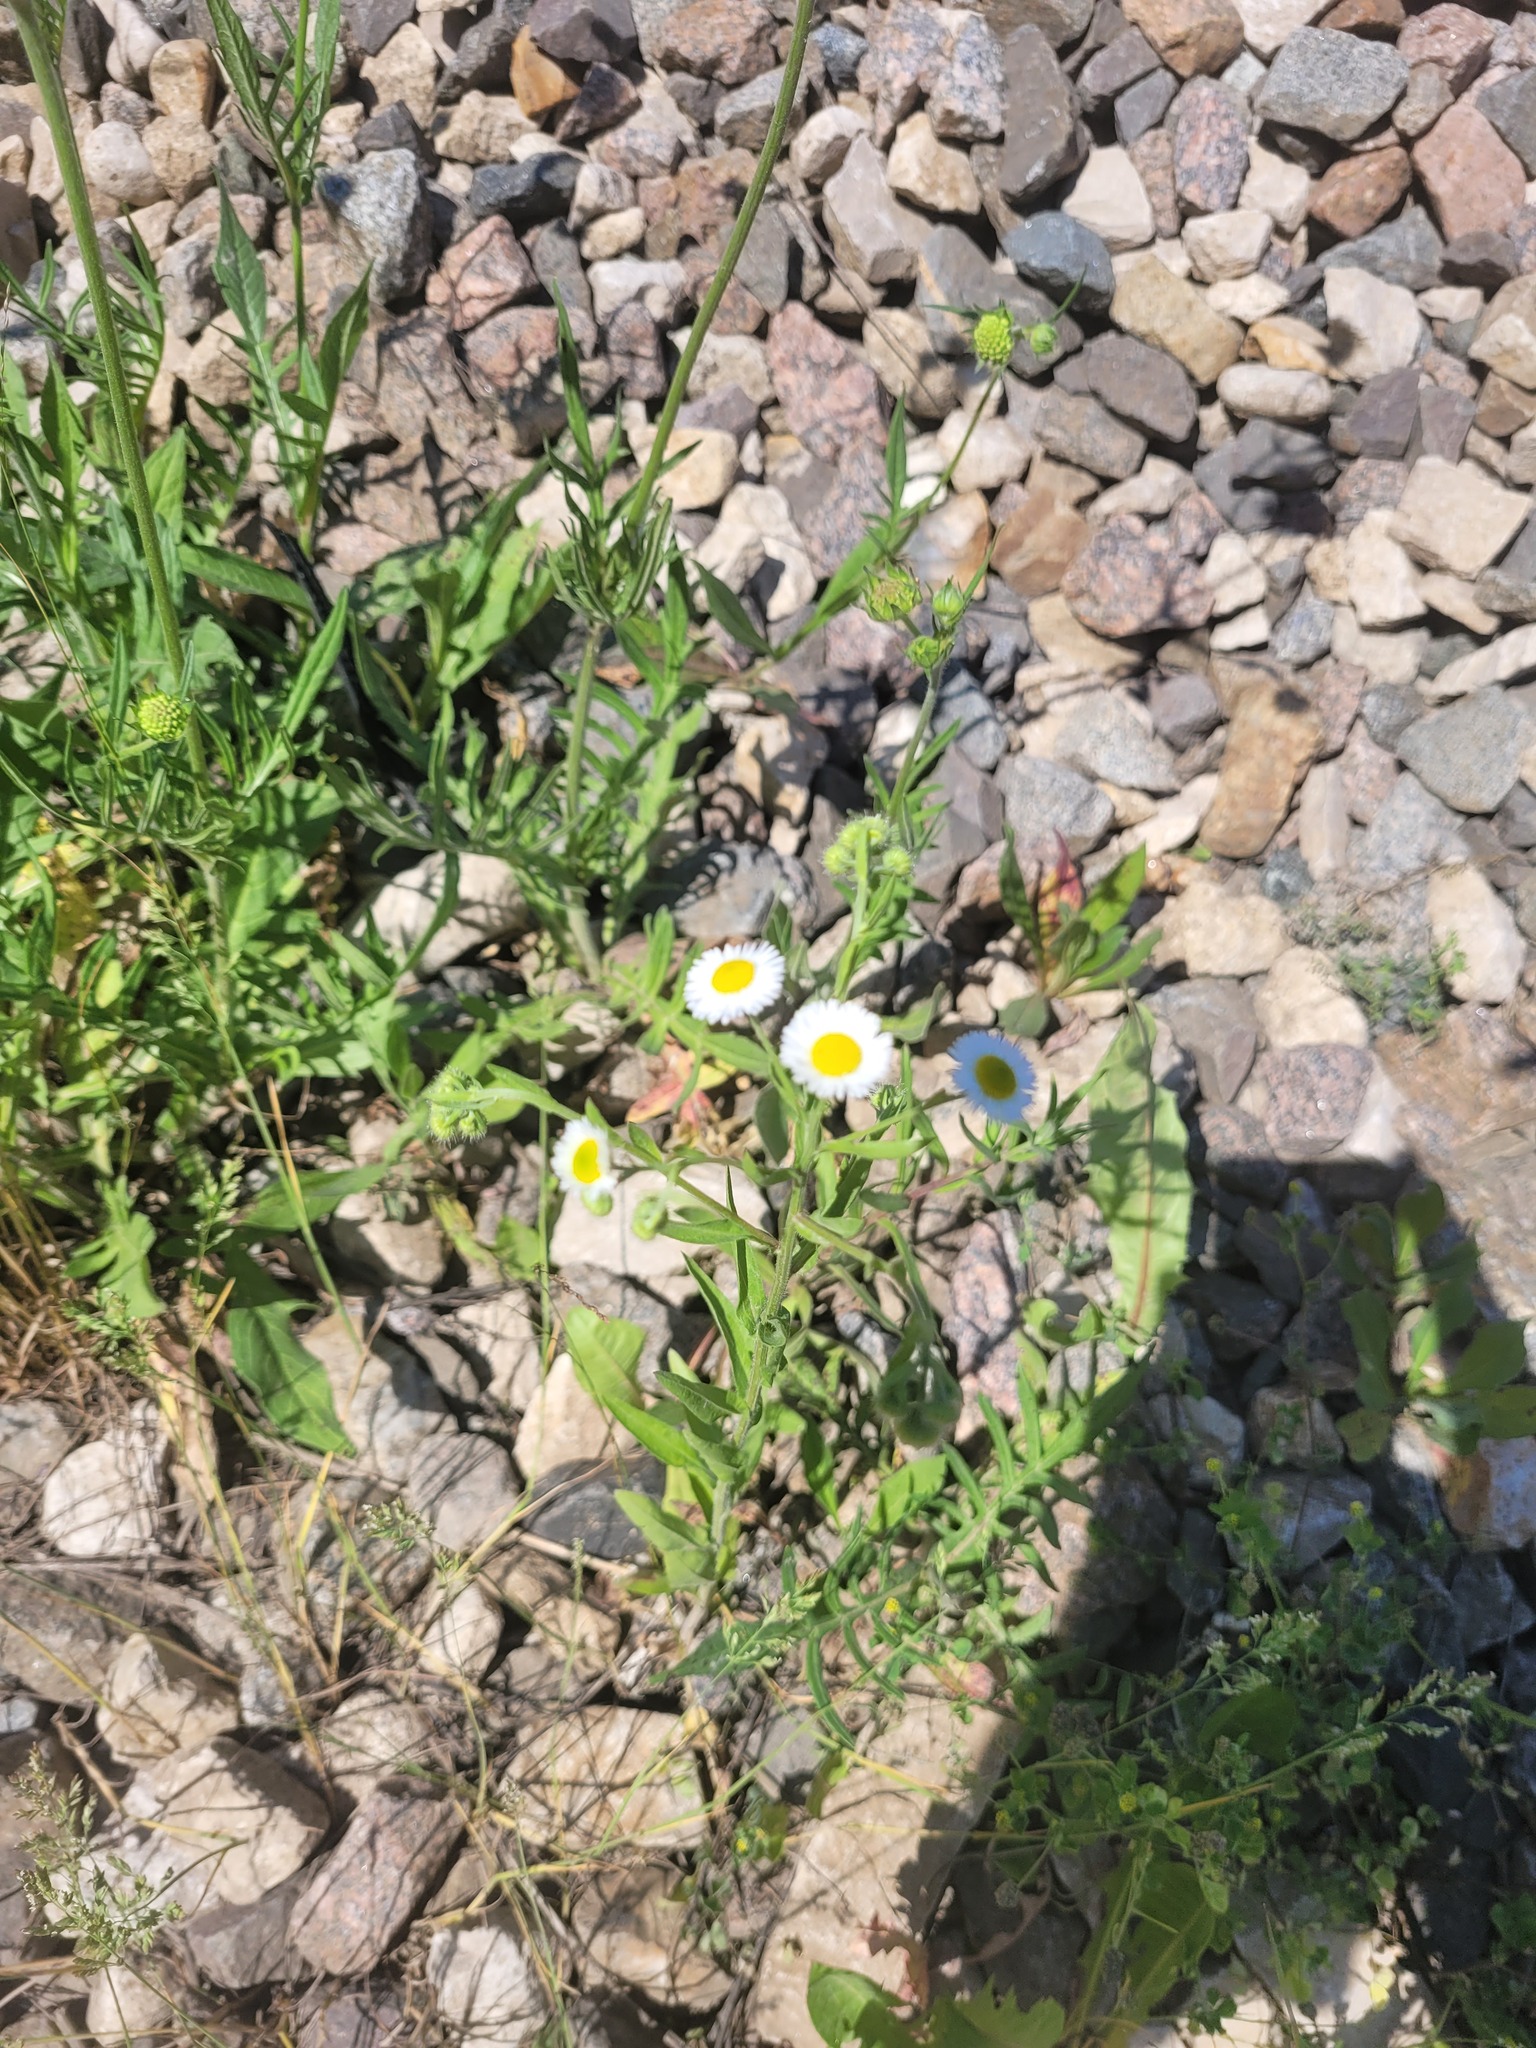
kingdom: Plantae
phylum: Tracheophyta
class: Magnoliopsida
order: Asterales
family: Asteraceae
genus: Erigeron
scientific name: Erigeron annuus
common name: Tall fleabane
